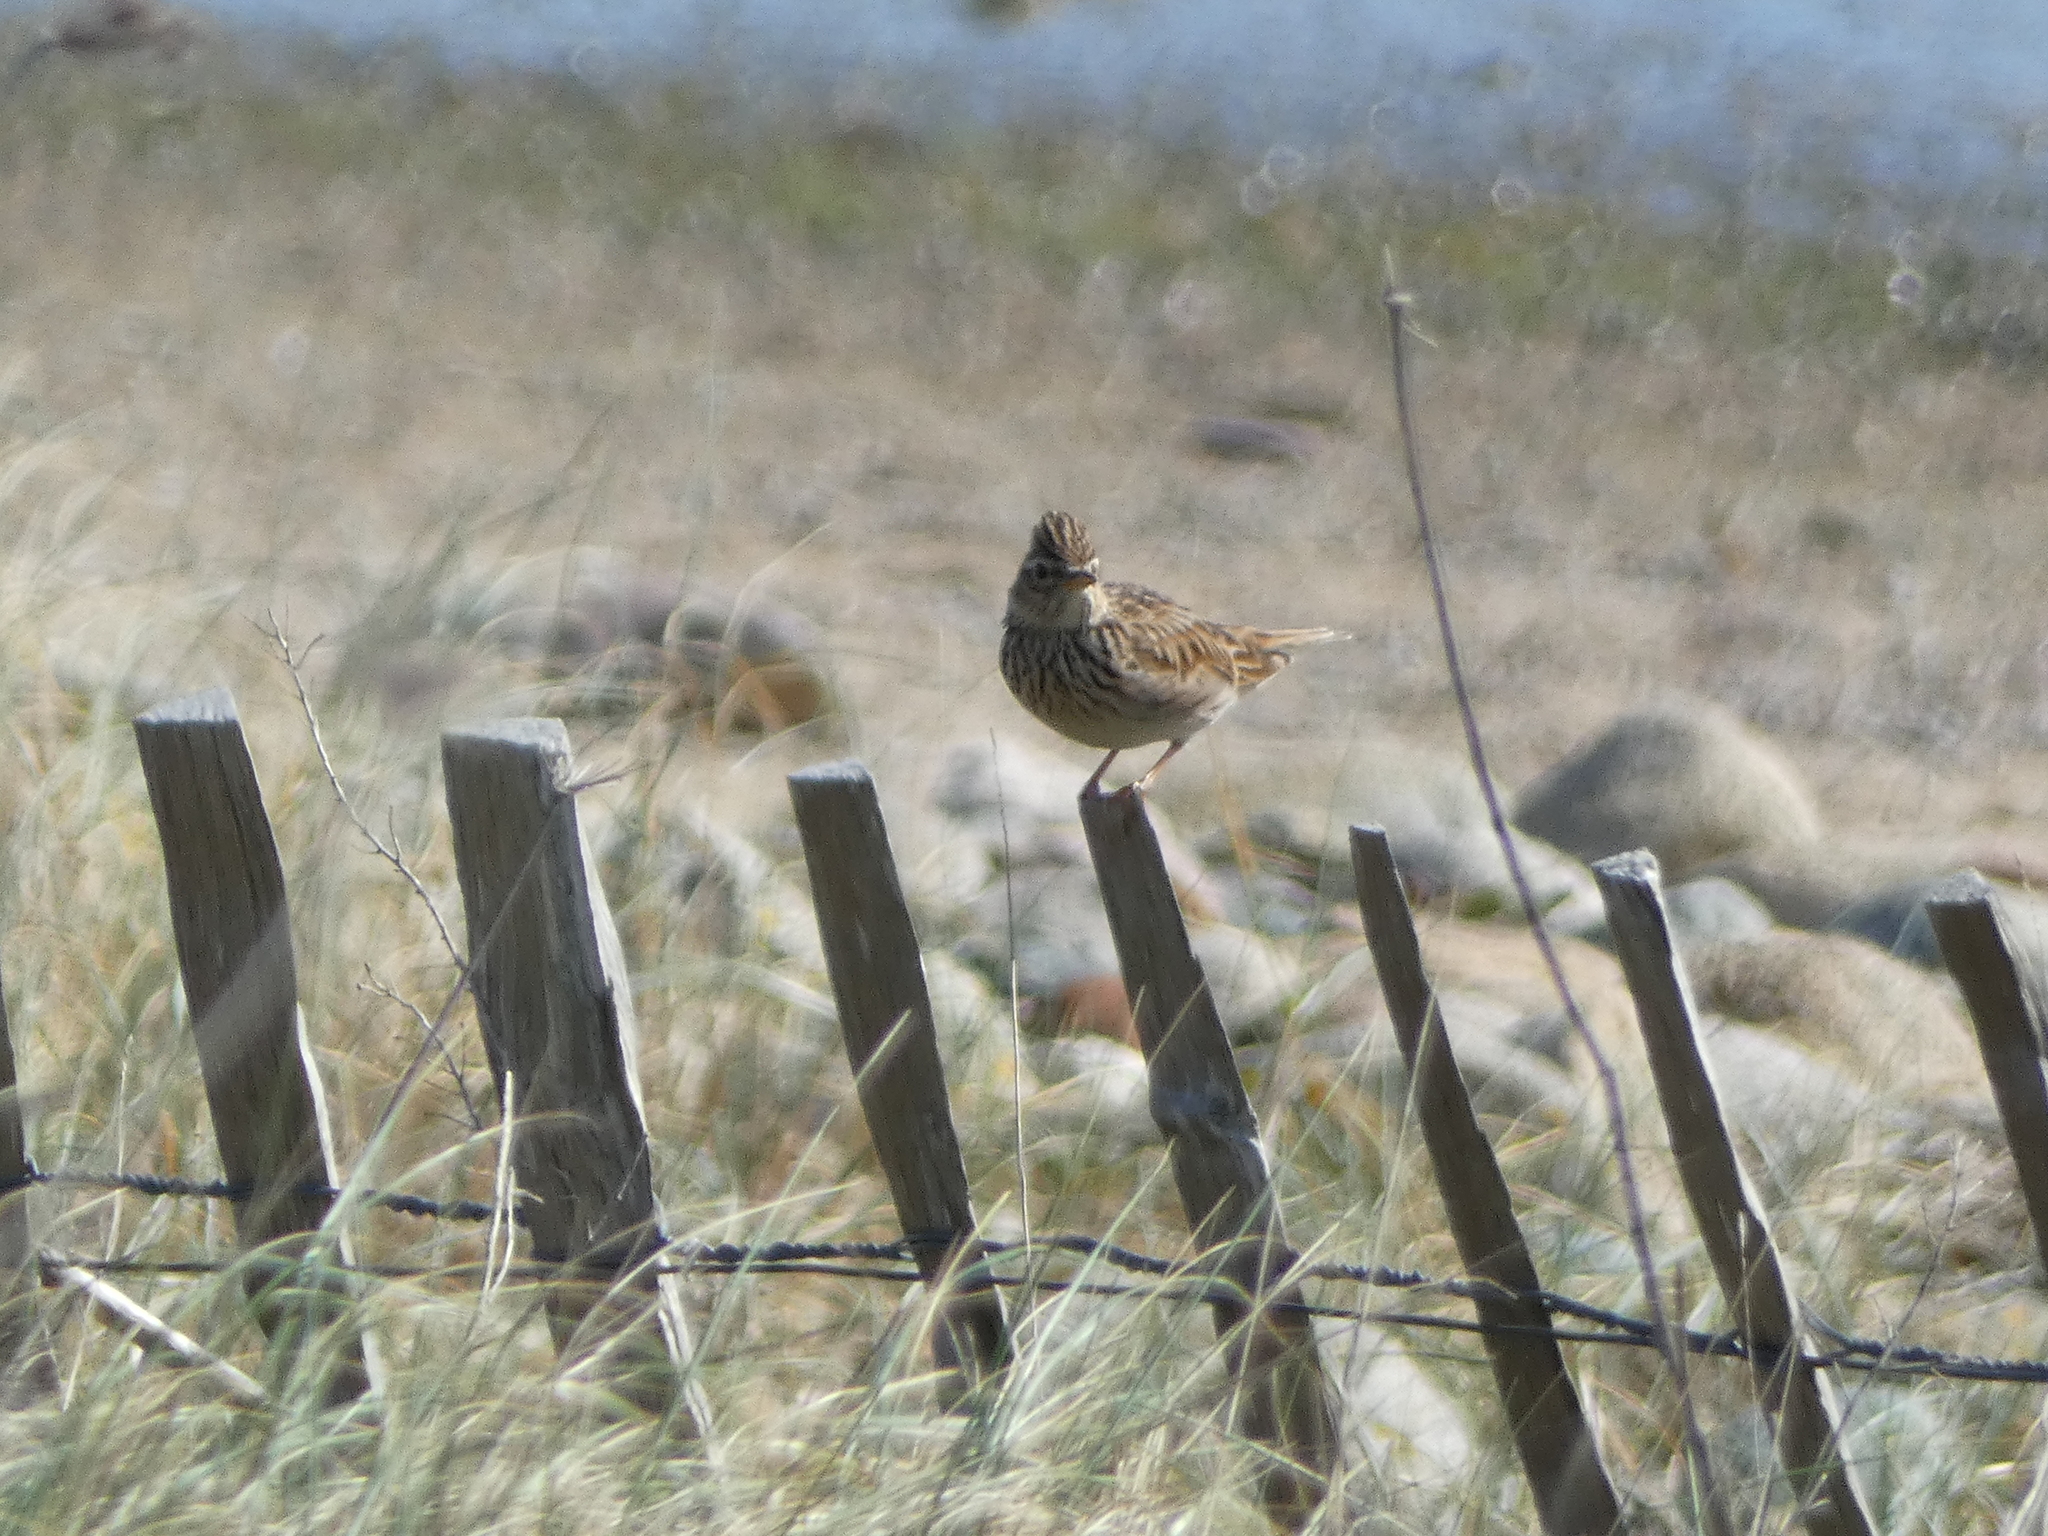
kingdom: Animalia
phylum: Chordata
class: Aves
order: Passeriformes
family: Alaudidae
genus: Alauda
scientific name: Alauda arvensis
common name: Eurasian skylark
